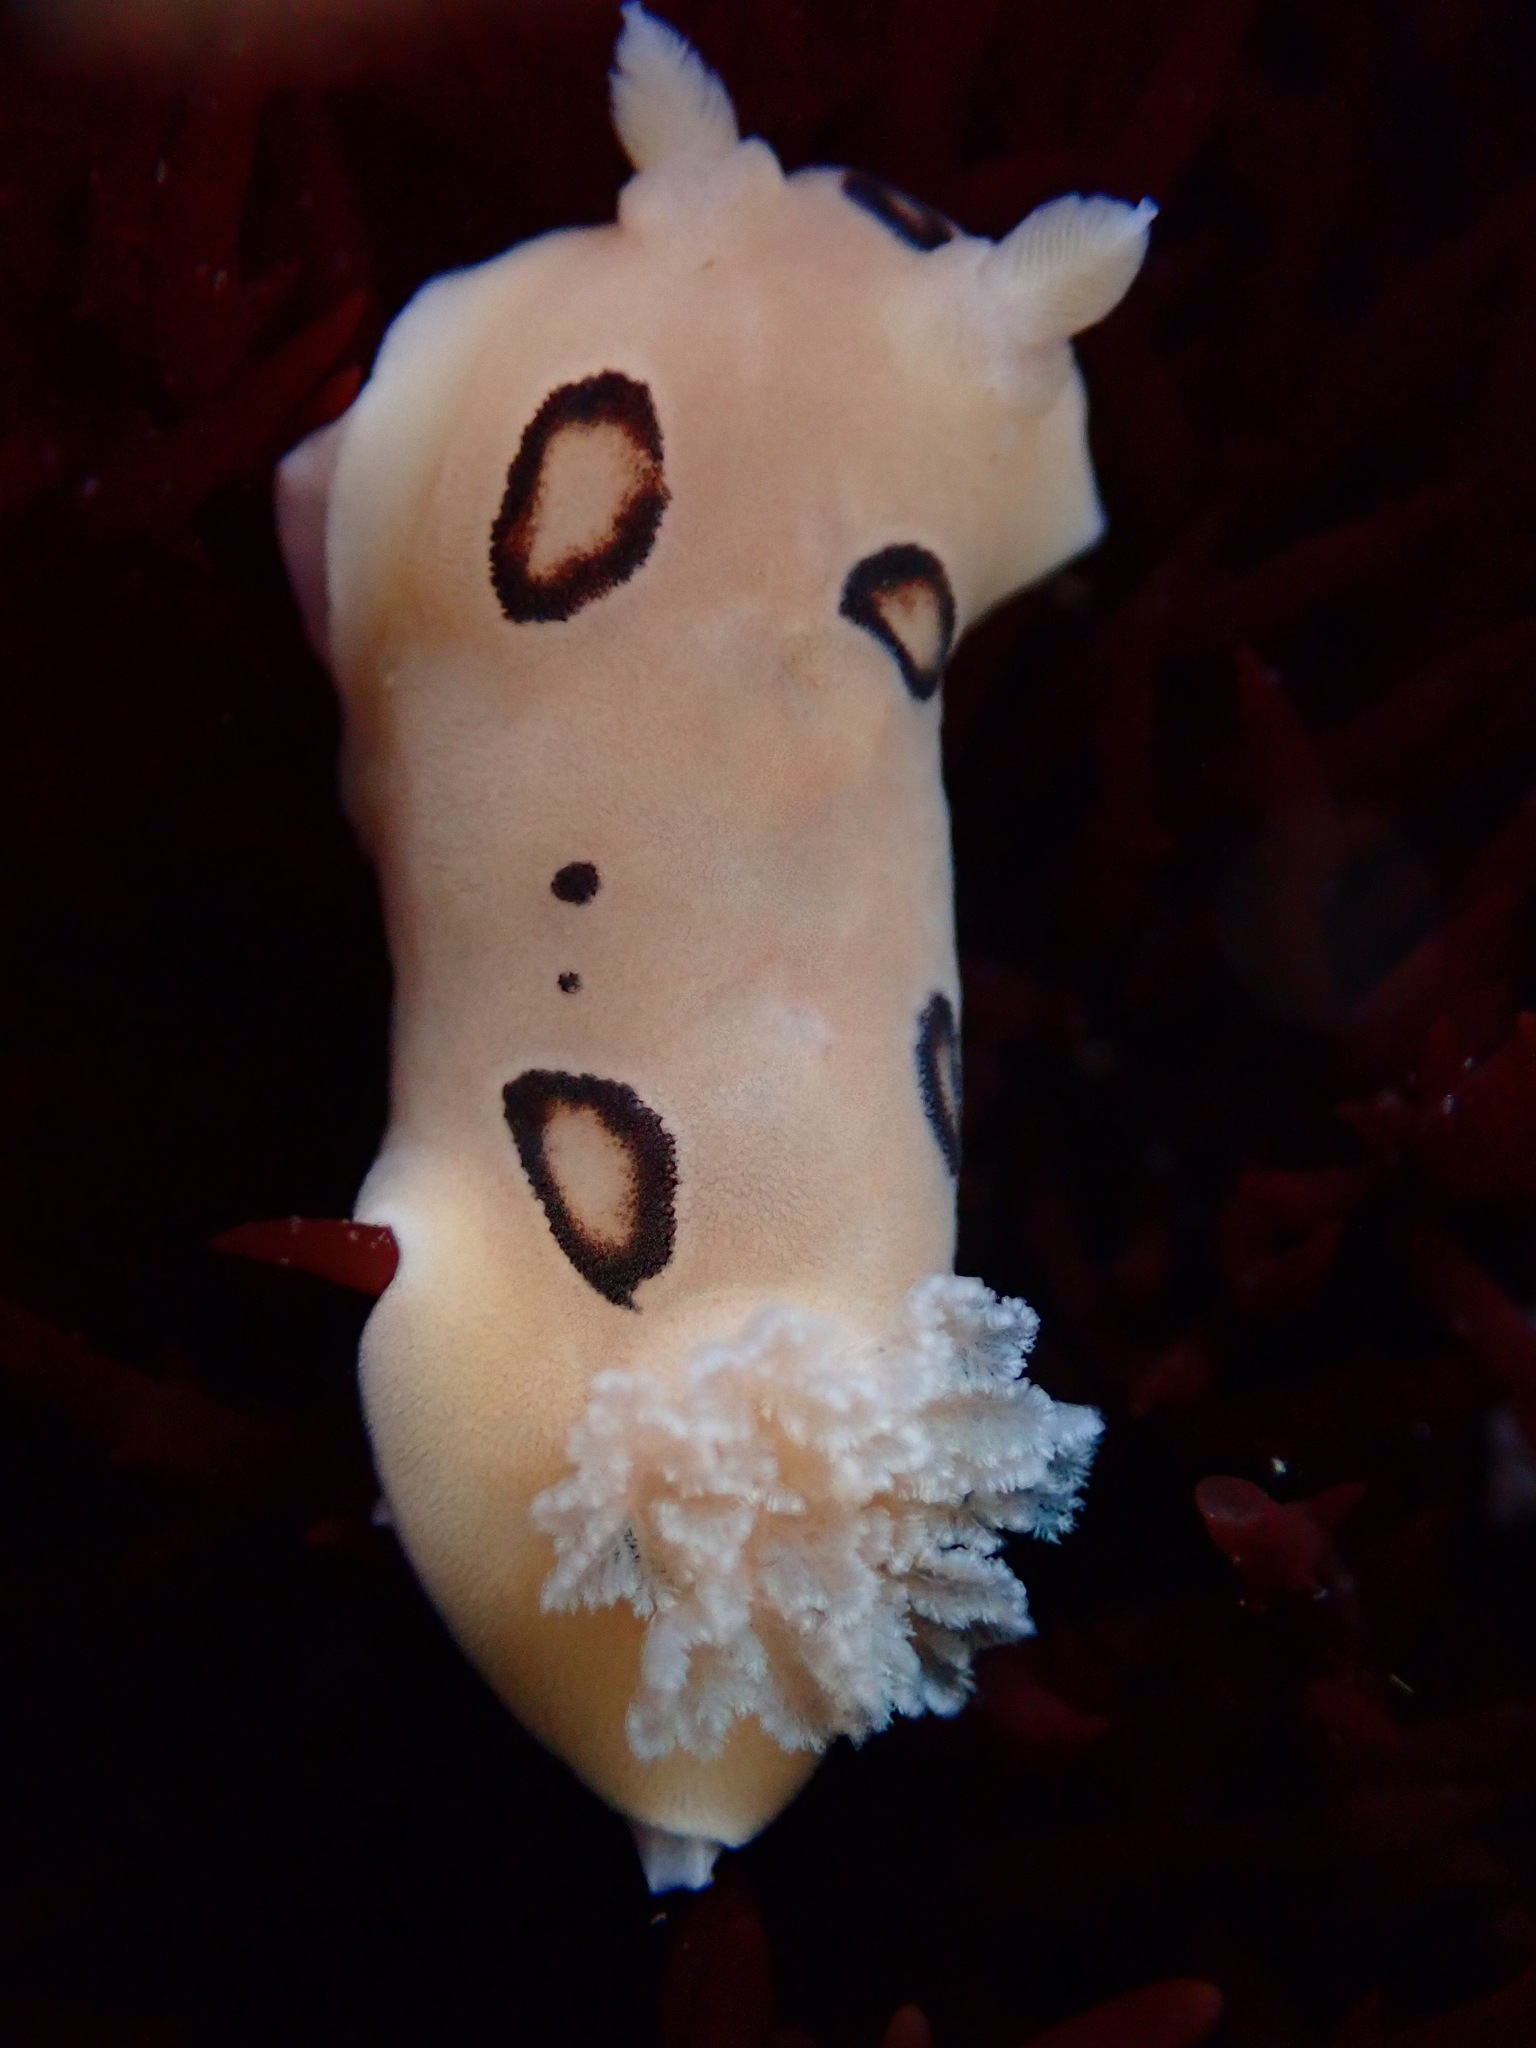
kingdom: Animalia
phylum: Mollusca
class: Gastropoda
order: Nudibranchia
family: Discodorididae
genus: Diaulula
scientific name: Diaulula sandiegensis
